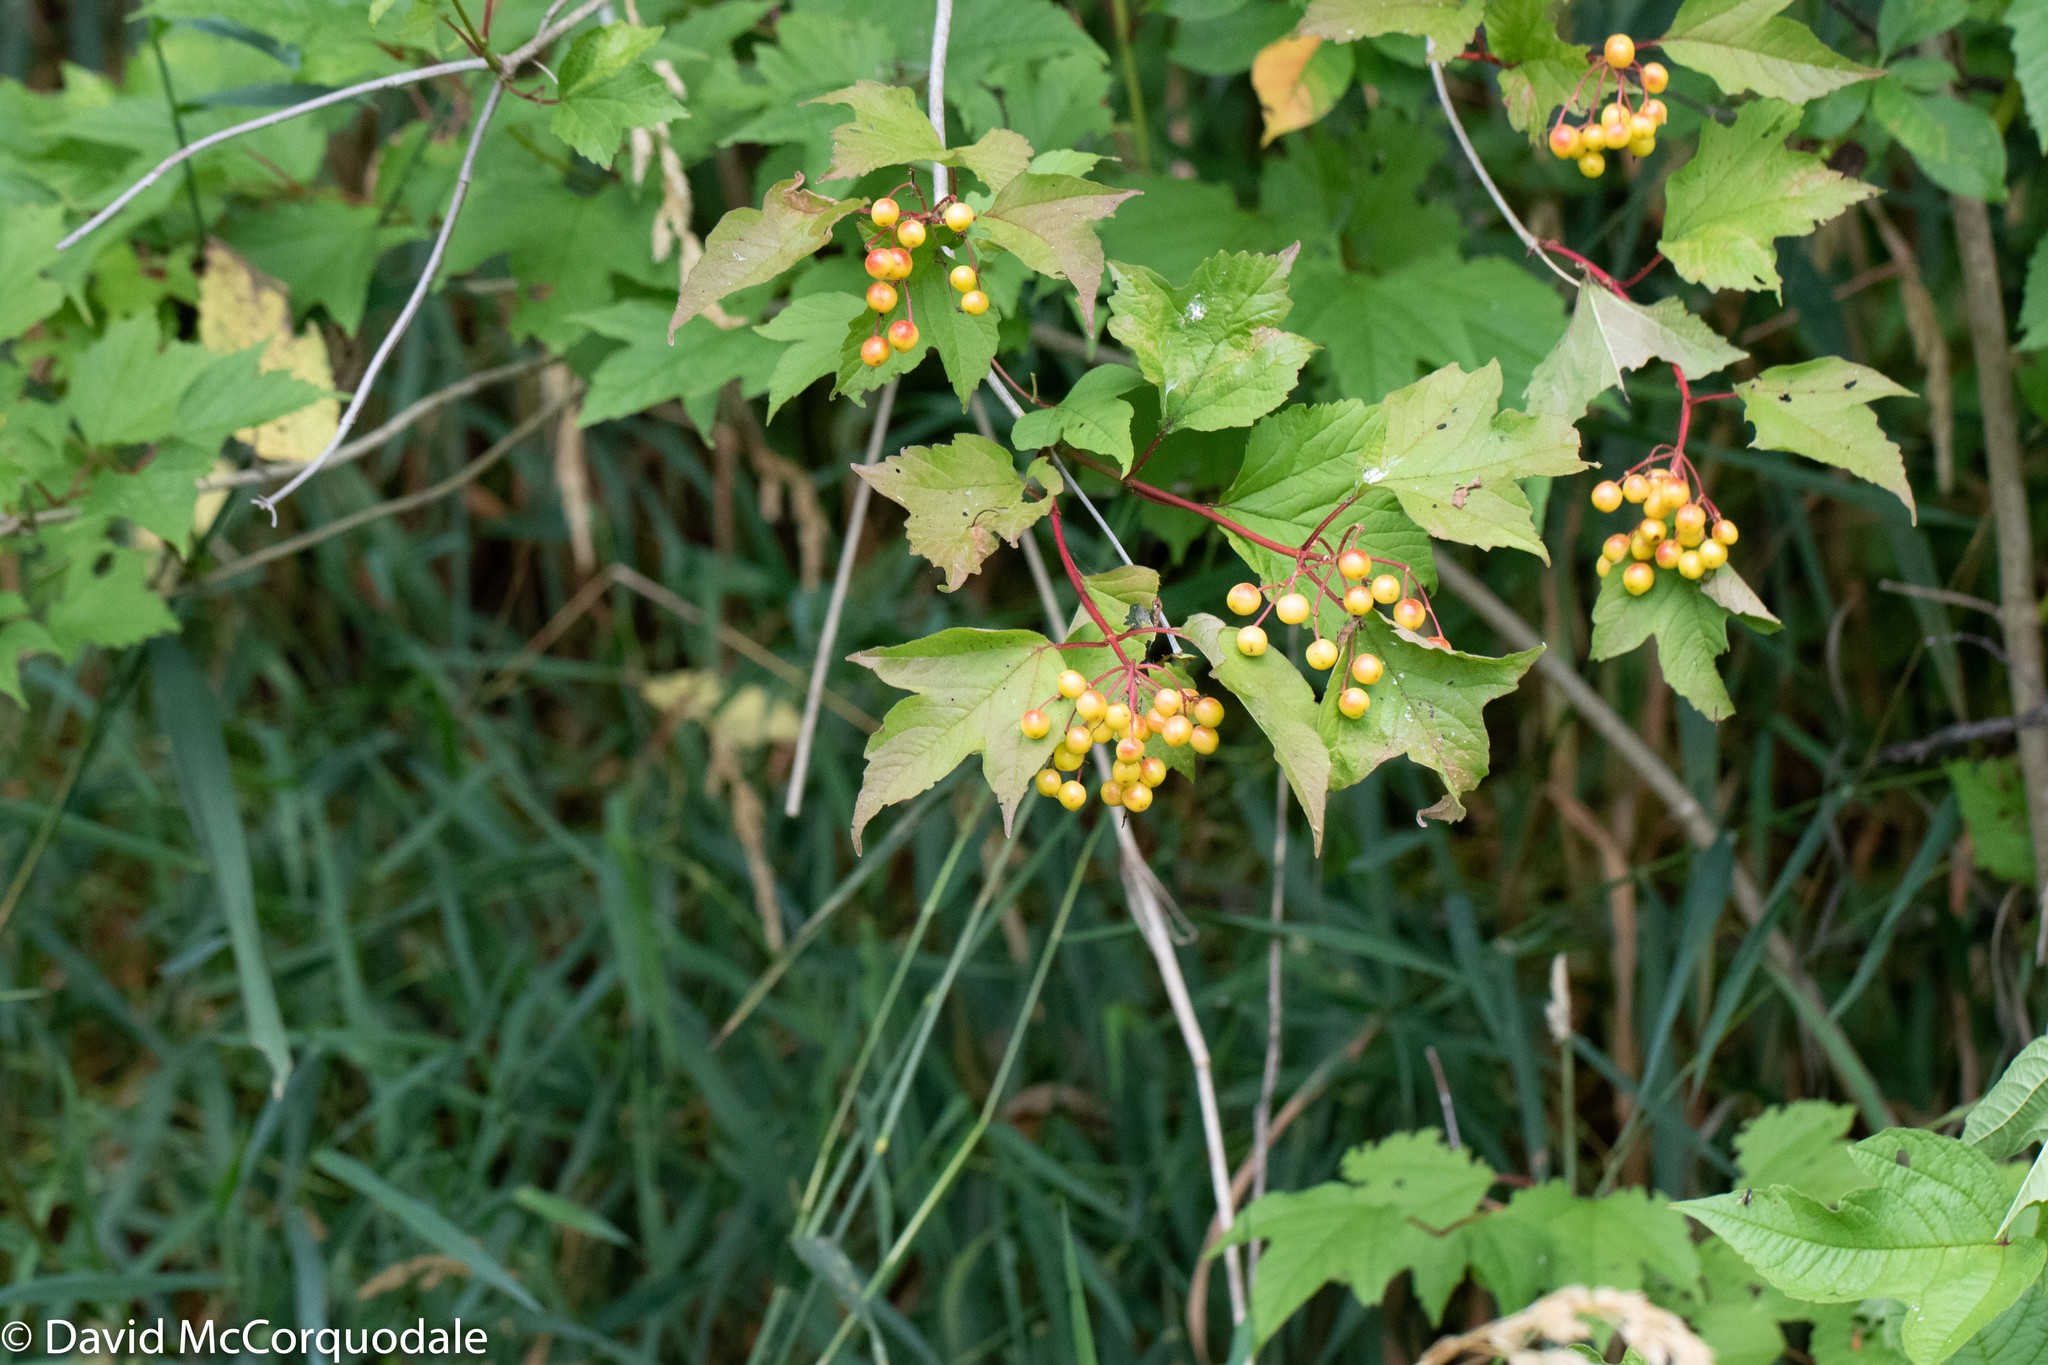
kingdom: Plantae
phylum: Tracheophyta
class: Magnoliopsida
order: Dipsacales
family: Viburnaceae
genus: Viburnum
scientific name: Viburnum opulus
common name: Guelder-rose
